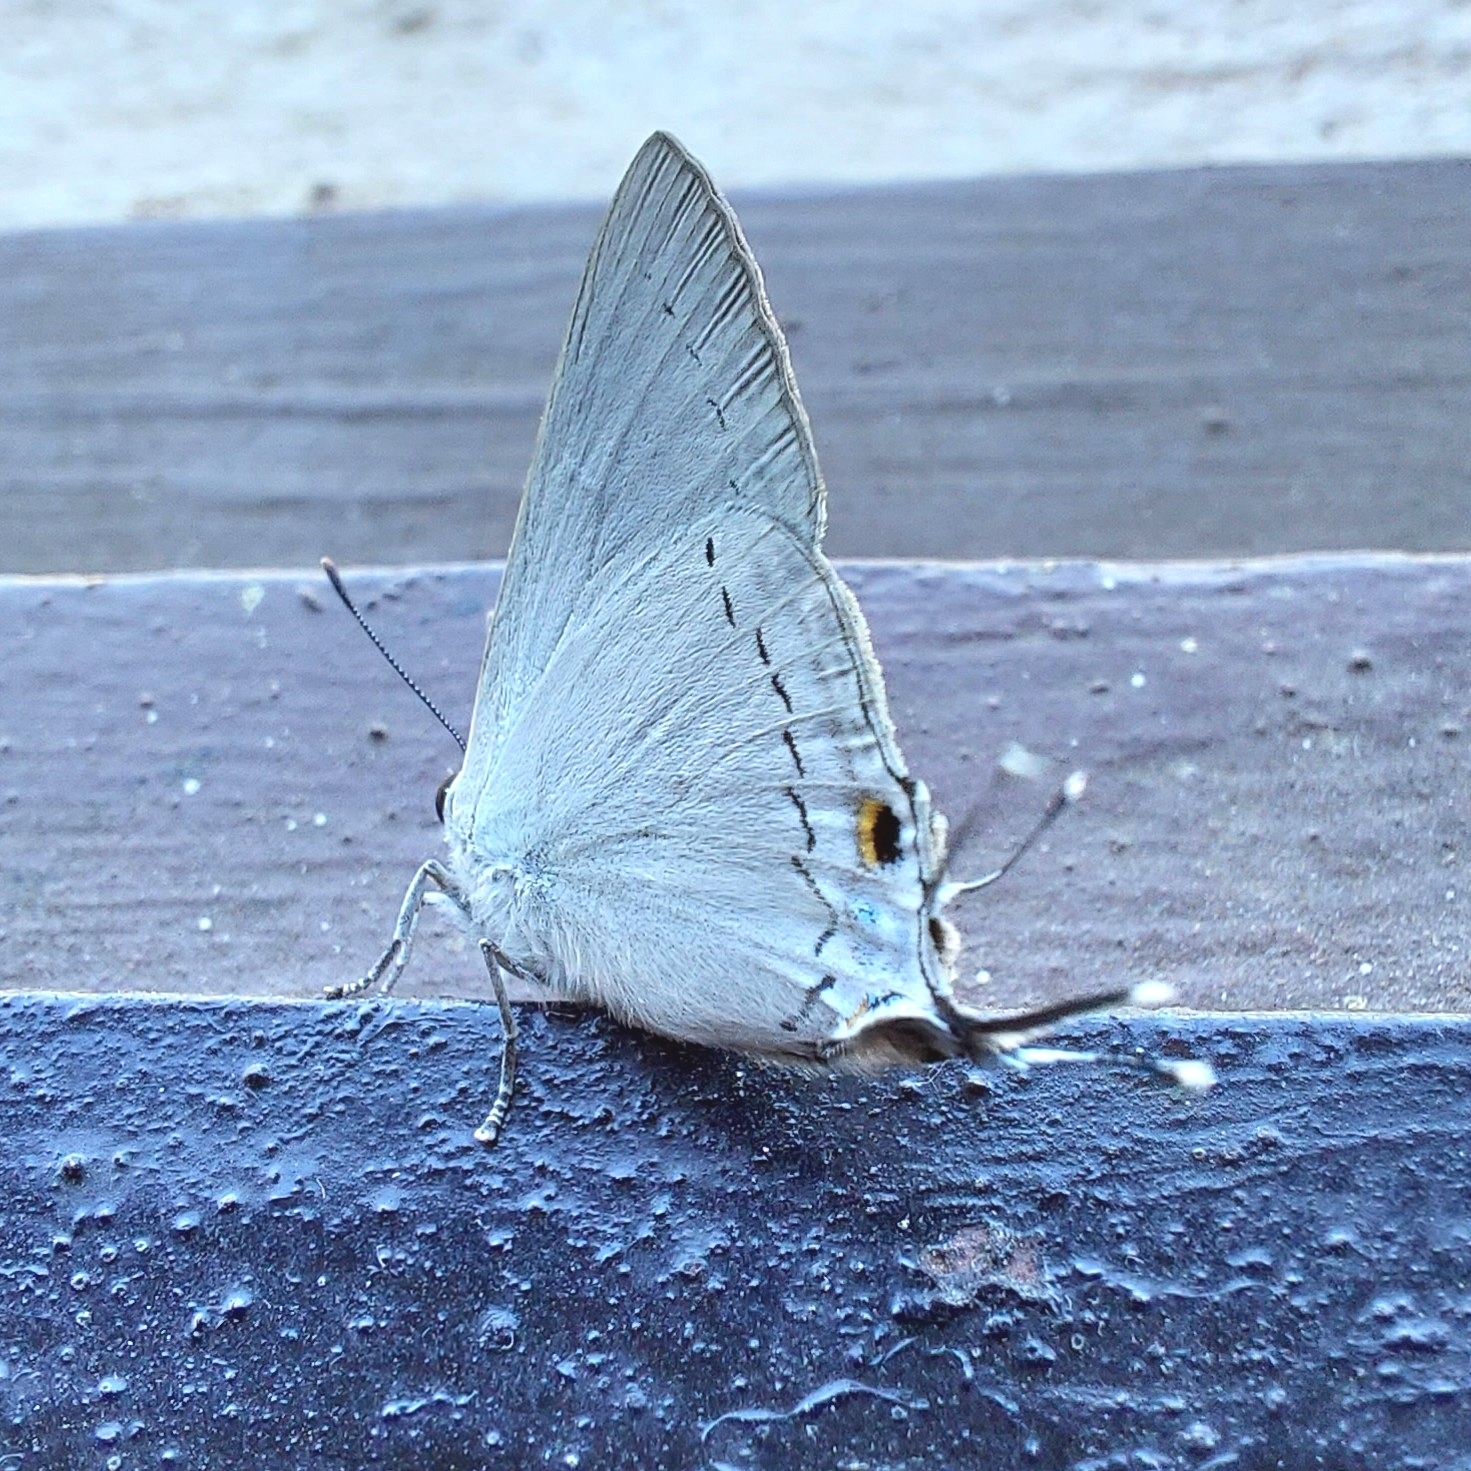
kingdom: Animalia
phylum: Arthropoda
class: Insecta
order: Lepidoptera
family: Lycaenidae
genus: Tajuria
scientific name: Tajuria cippus
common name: Peacock royal
